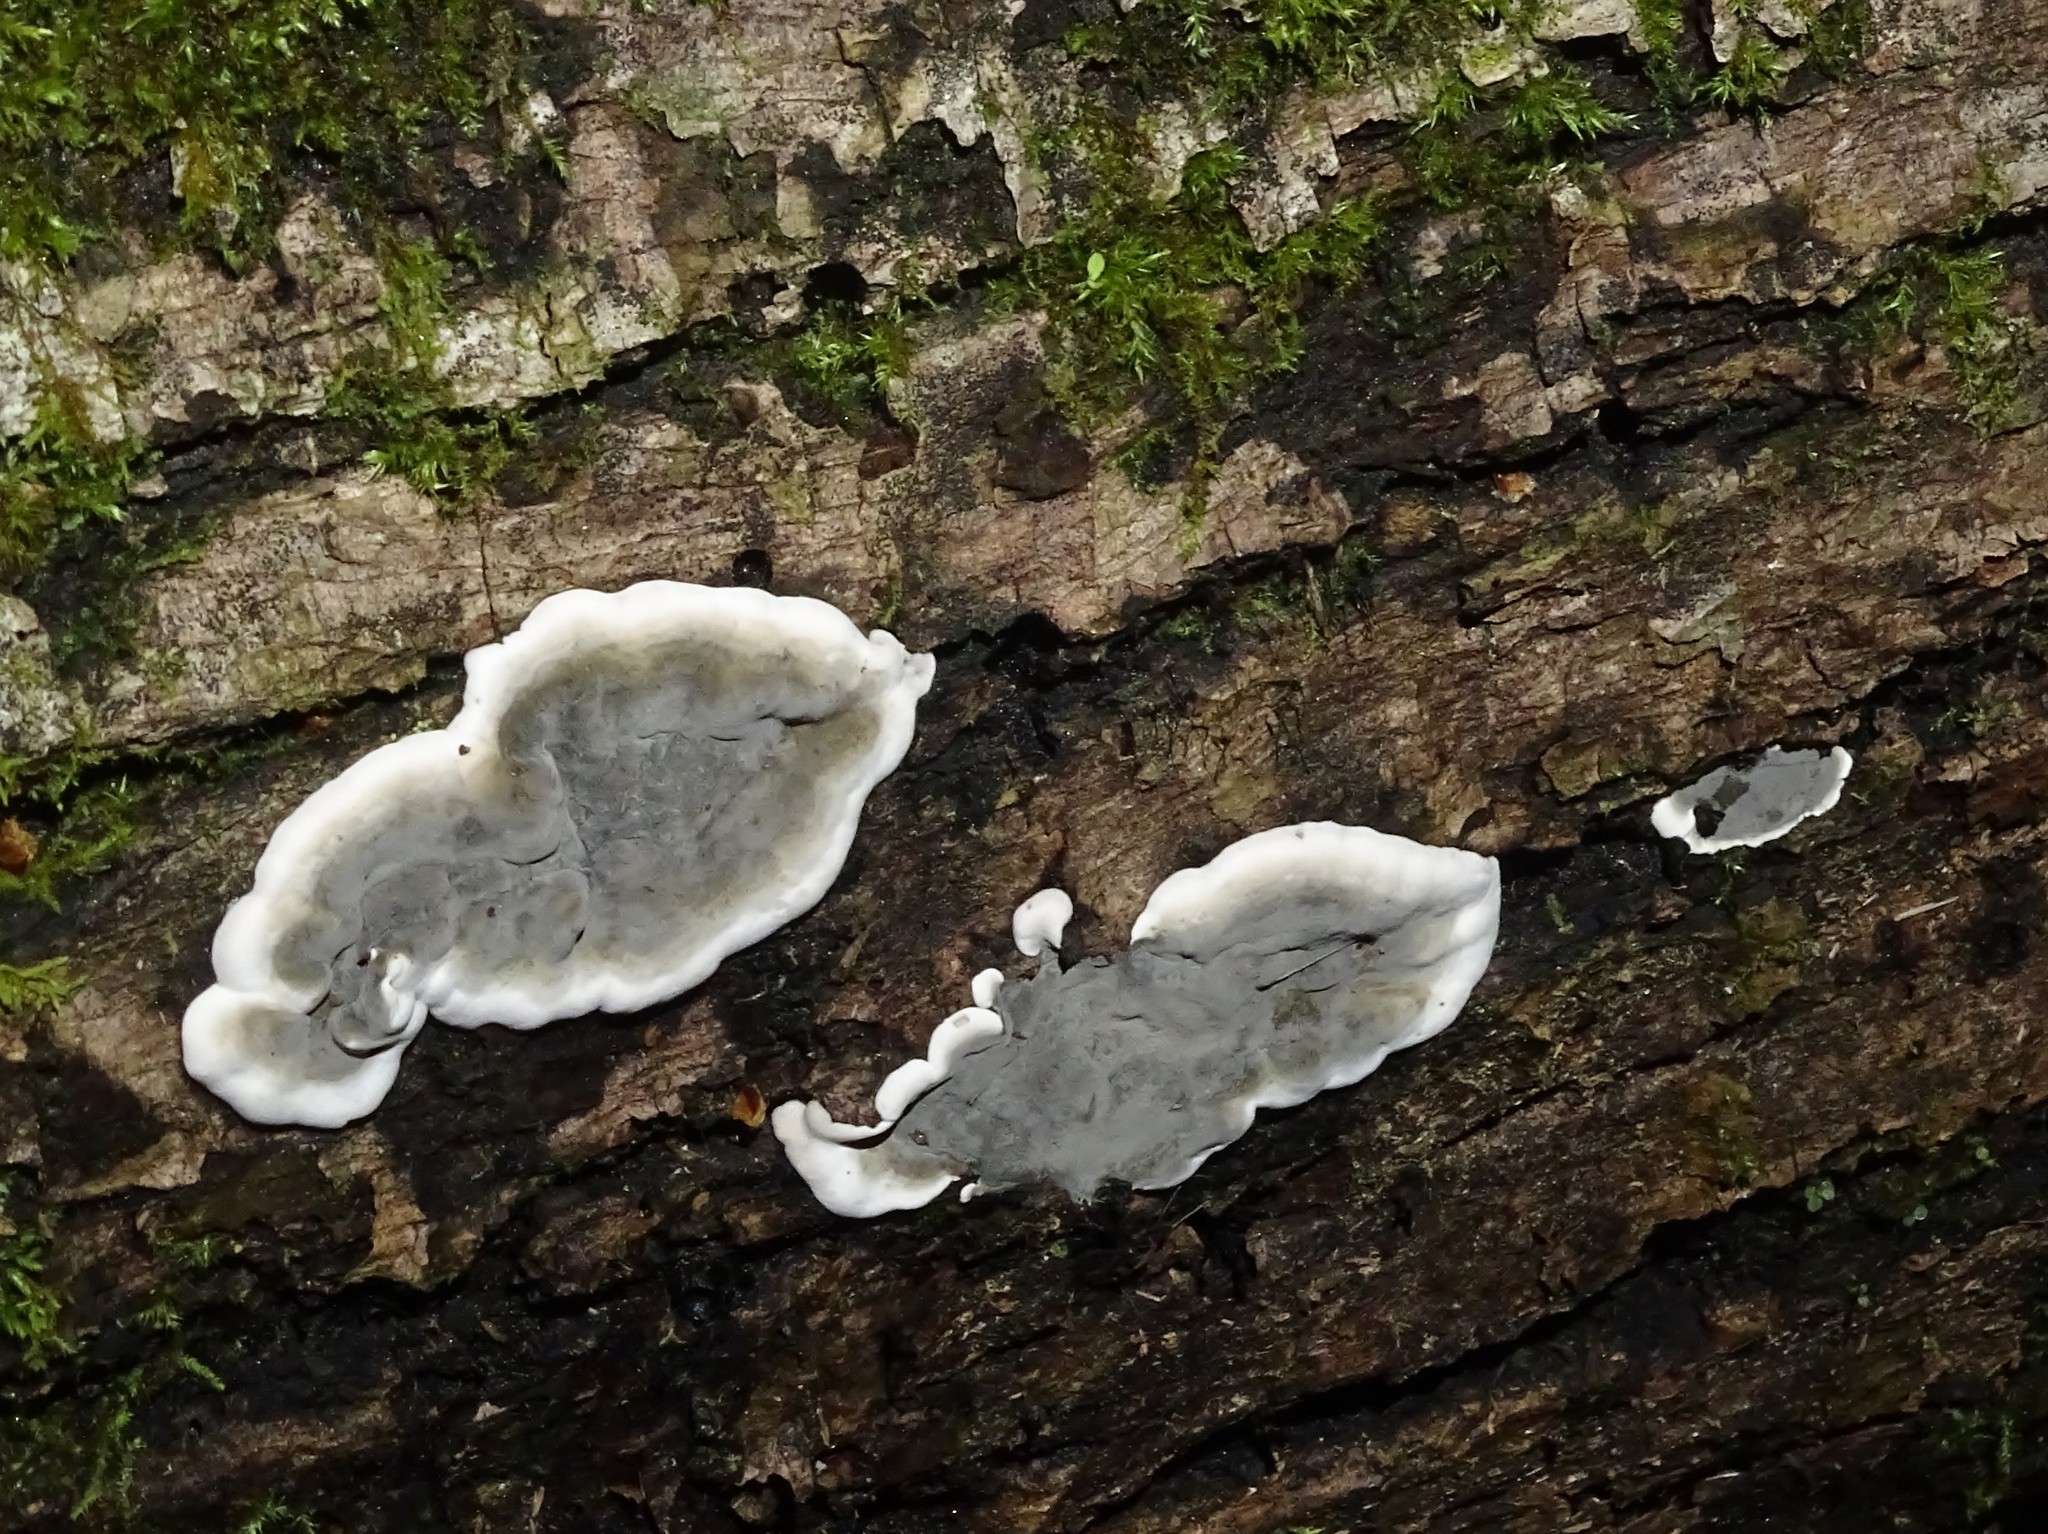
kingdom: Fungi
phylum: Ascomycota
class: Sordariomycetes
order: Xylariales
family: Xylariaceae
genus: Kretzschmaria
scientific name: Kretzschmaria deusta
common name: Brittle cinder
